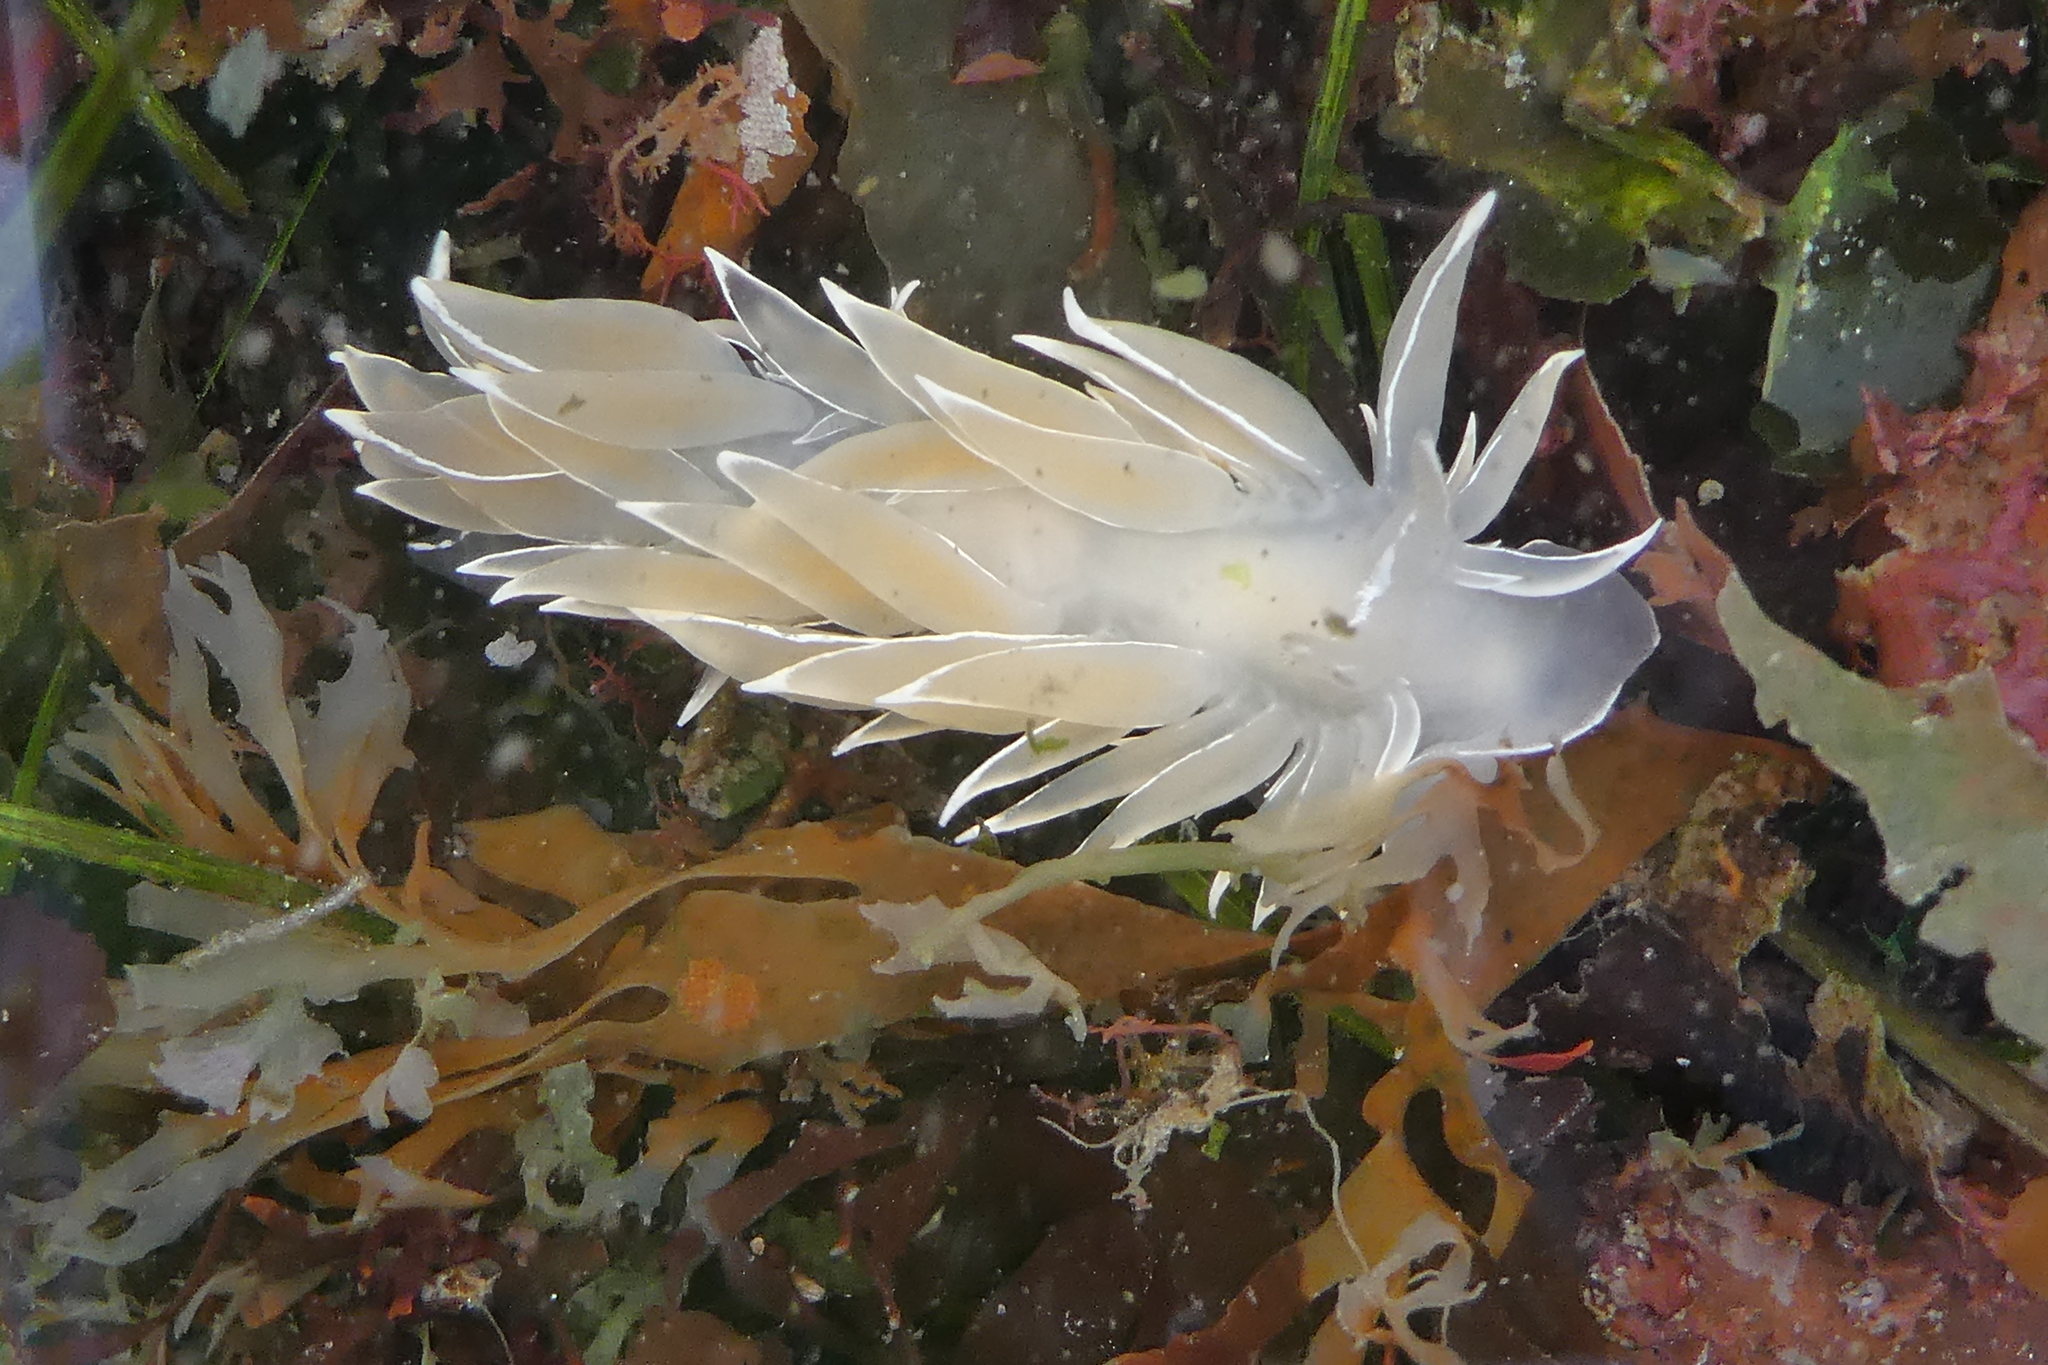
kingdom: Animalia
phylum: Mollusca
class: Gastropoda
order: Nudibranchia
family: Dironidae
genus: Dirona
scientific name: Dirona albolineata
